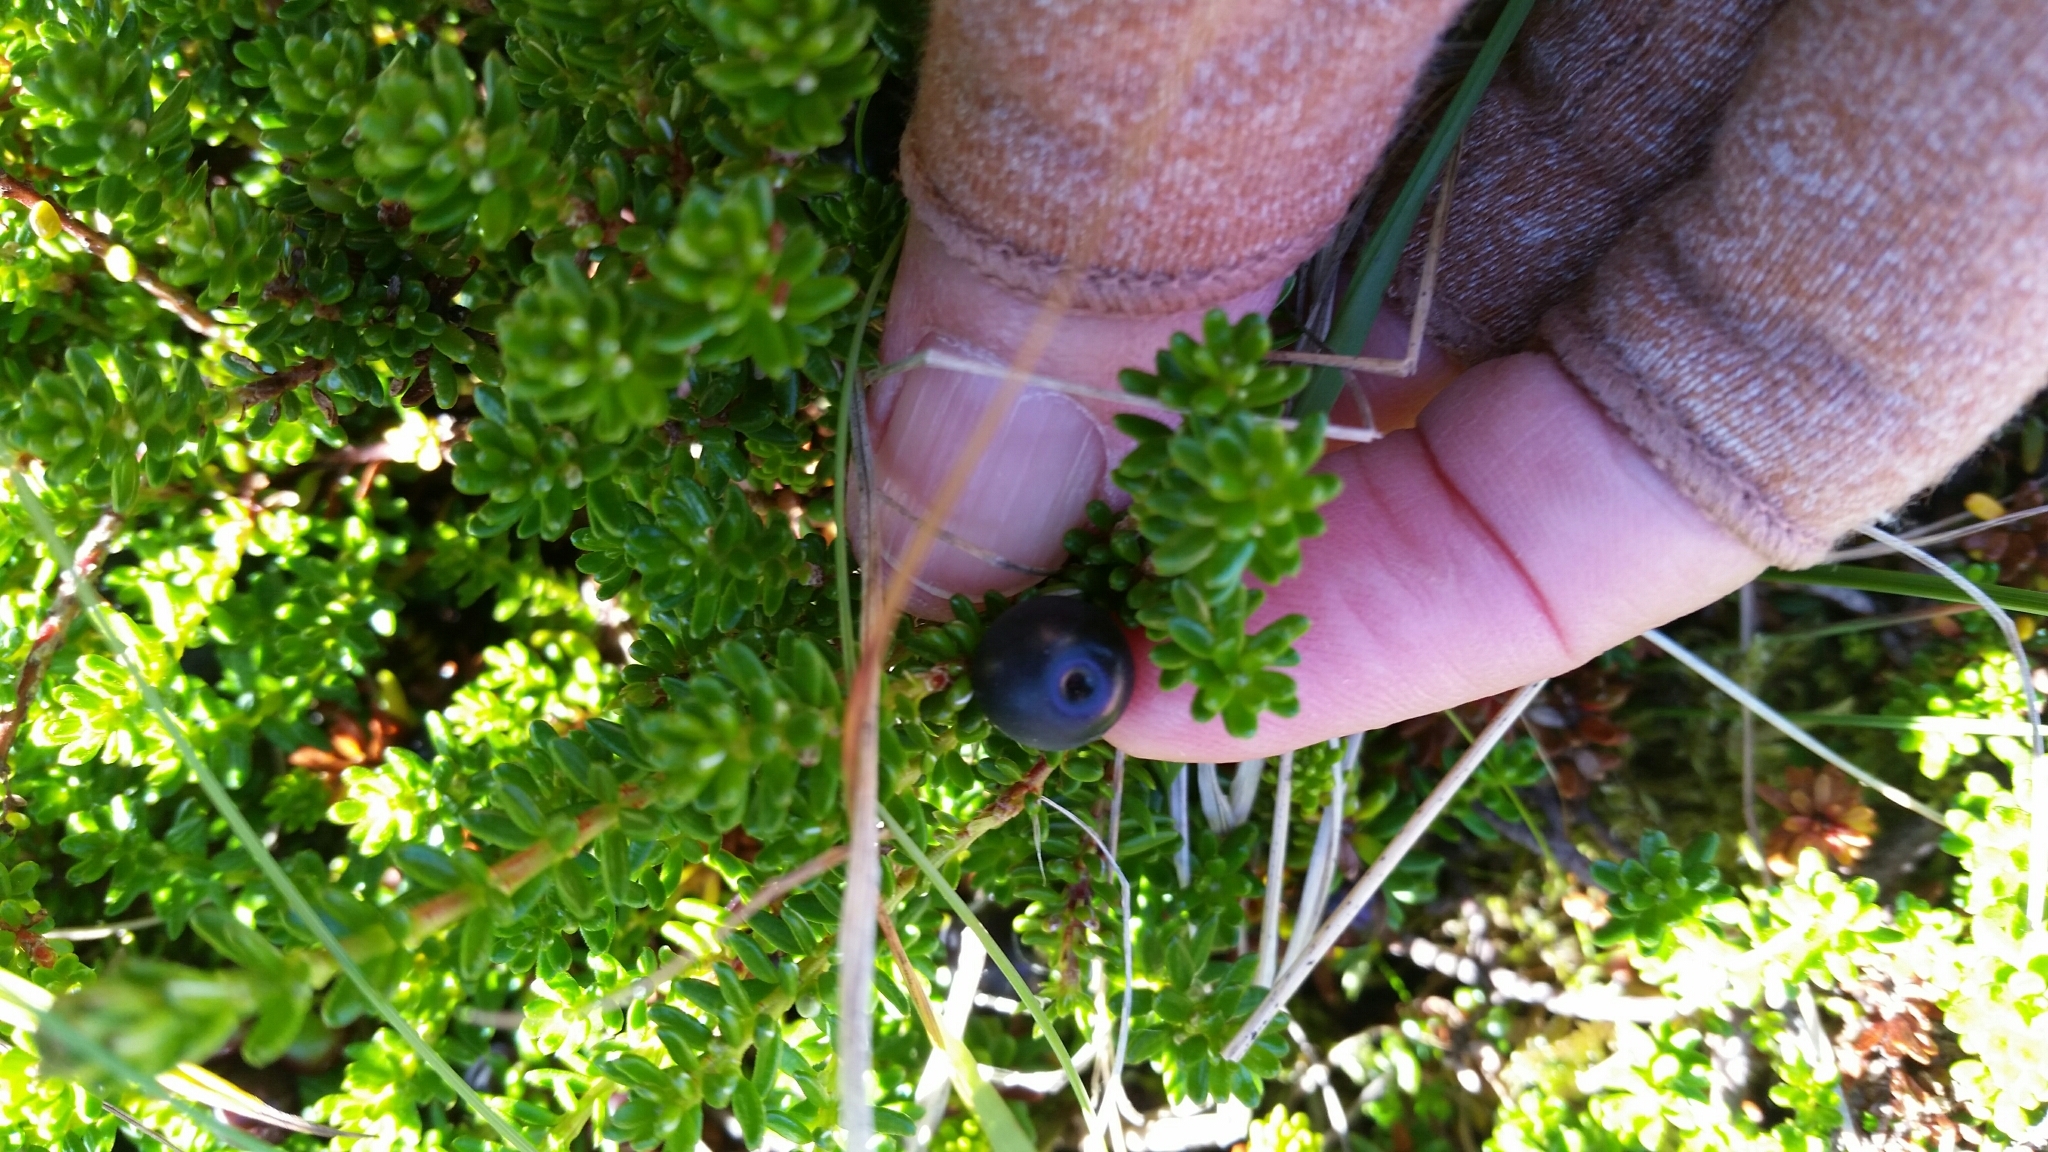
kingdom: Plantae
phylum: Tracheophyta
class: Magnoliopsida
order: Ericales
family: Ericaceae
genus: Empetrum
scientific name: Empetrum nigrum
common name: Black crowberry
